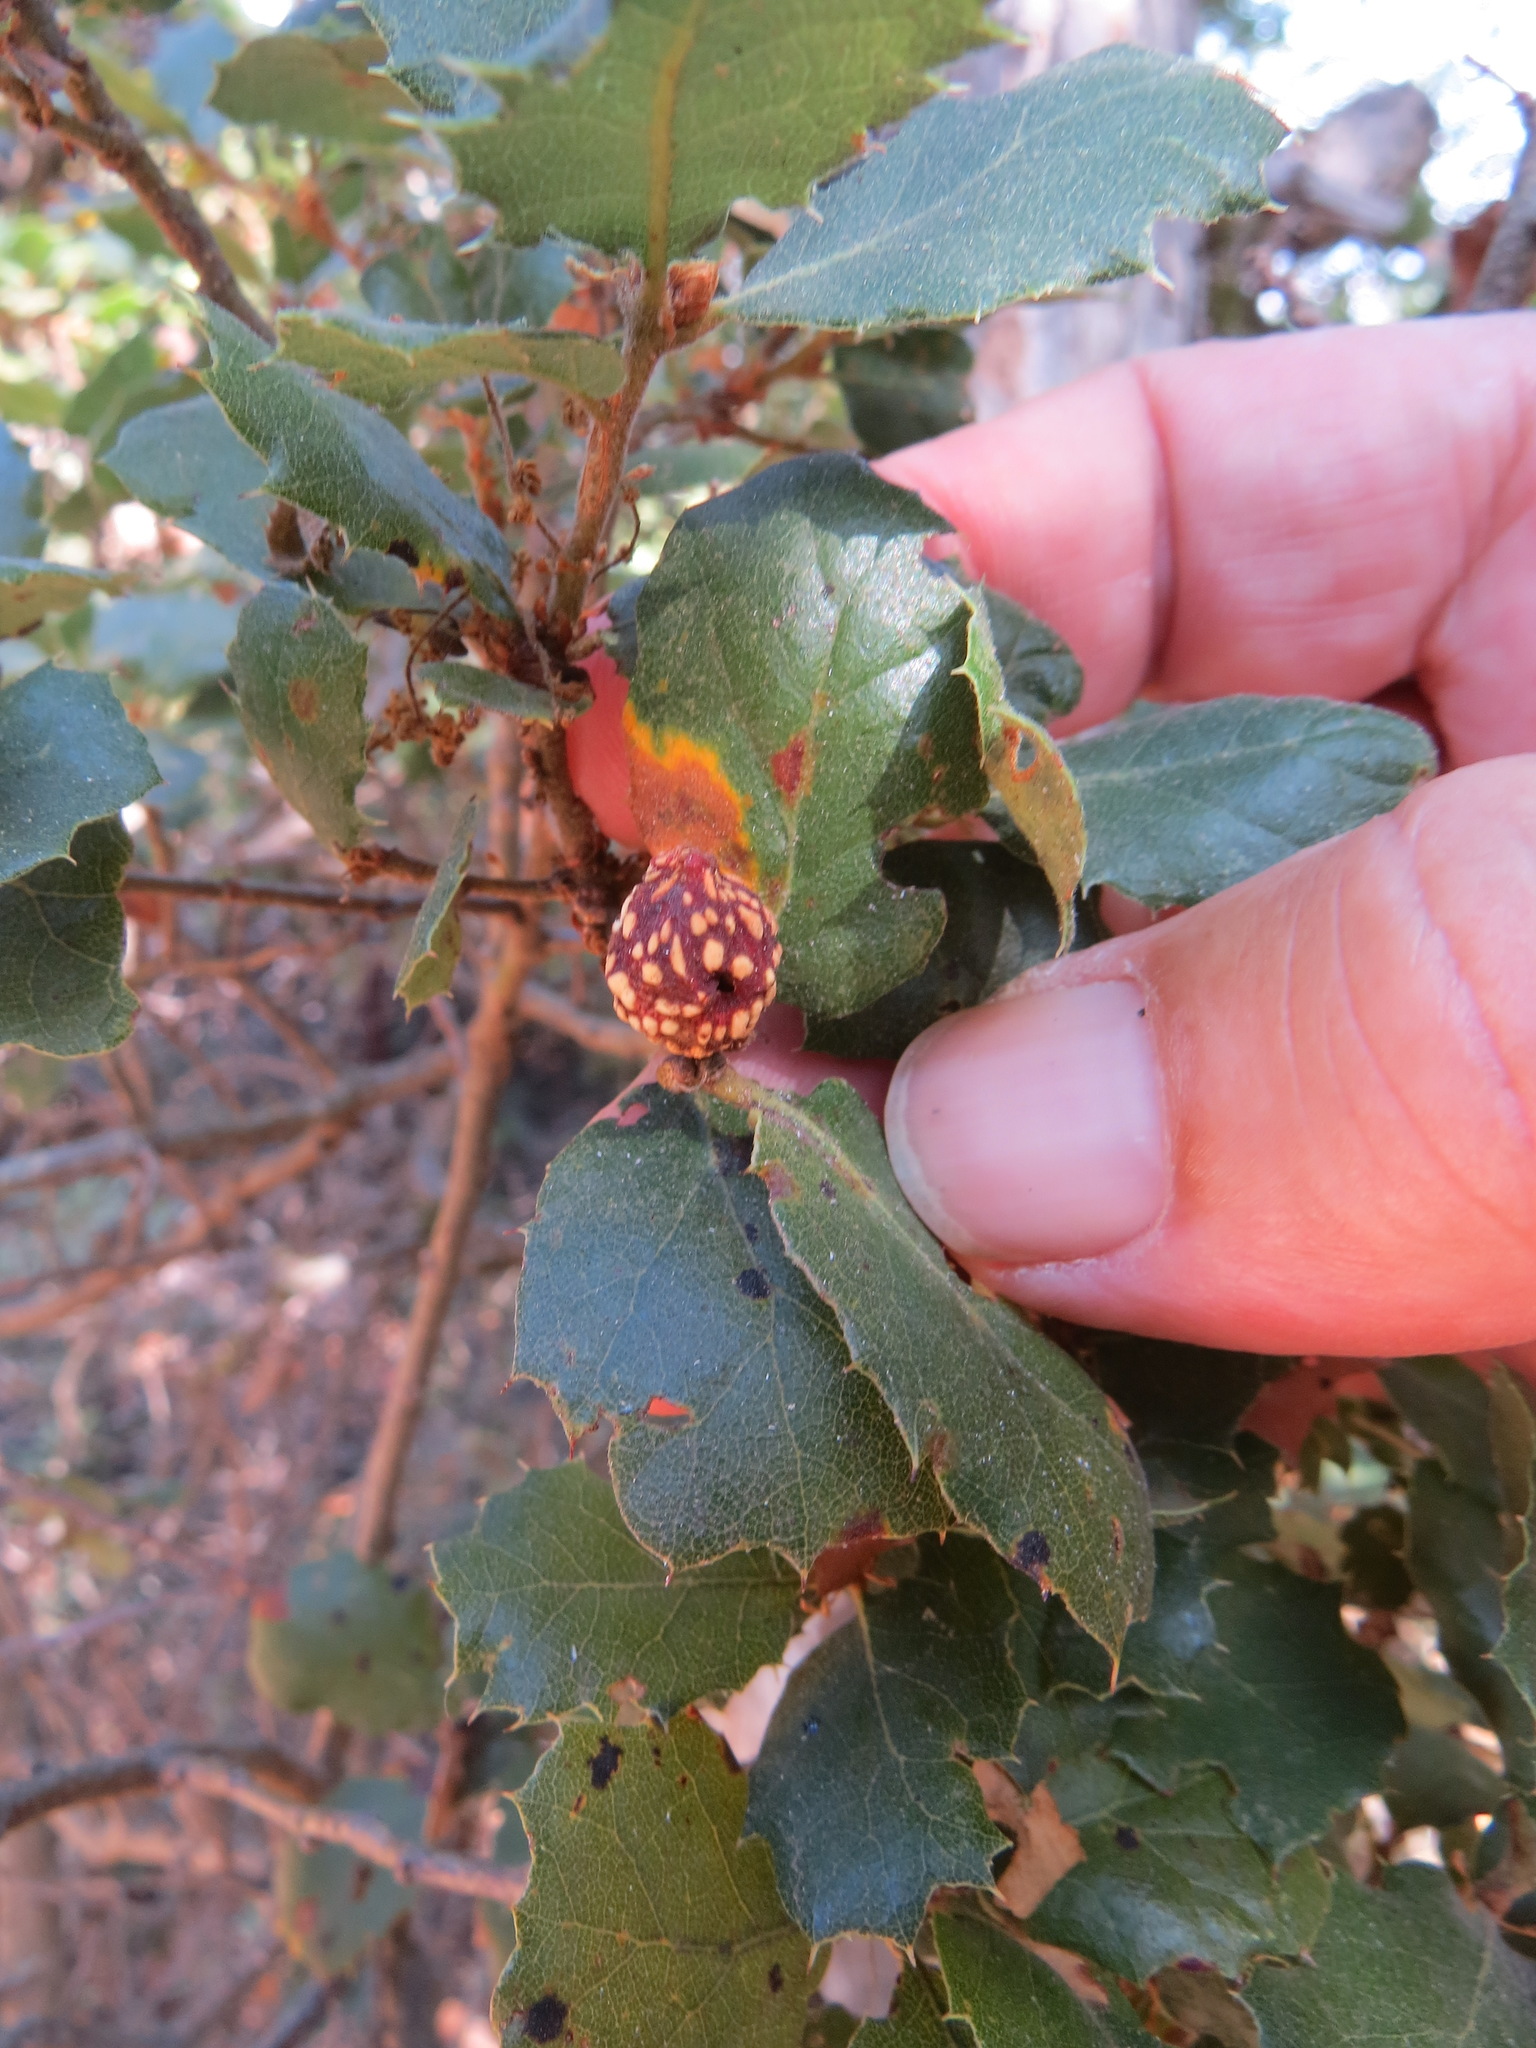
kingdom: Animalia
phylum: Arthropoda
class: Insecta
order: Hymenoptera
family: Cynipidae
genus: Burnettweldia
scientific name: Burnettweldia
